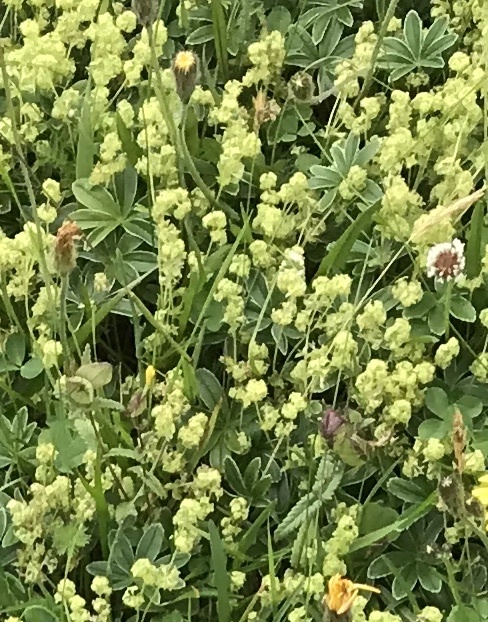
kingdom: Plantae
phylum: Tracheophyta
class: Magnoliopsida
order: Rosales
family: Rosaceae
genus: Alchemilla
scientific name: Alchemilla alpina
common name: Alpine lady's-mantle
